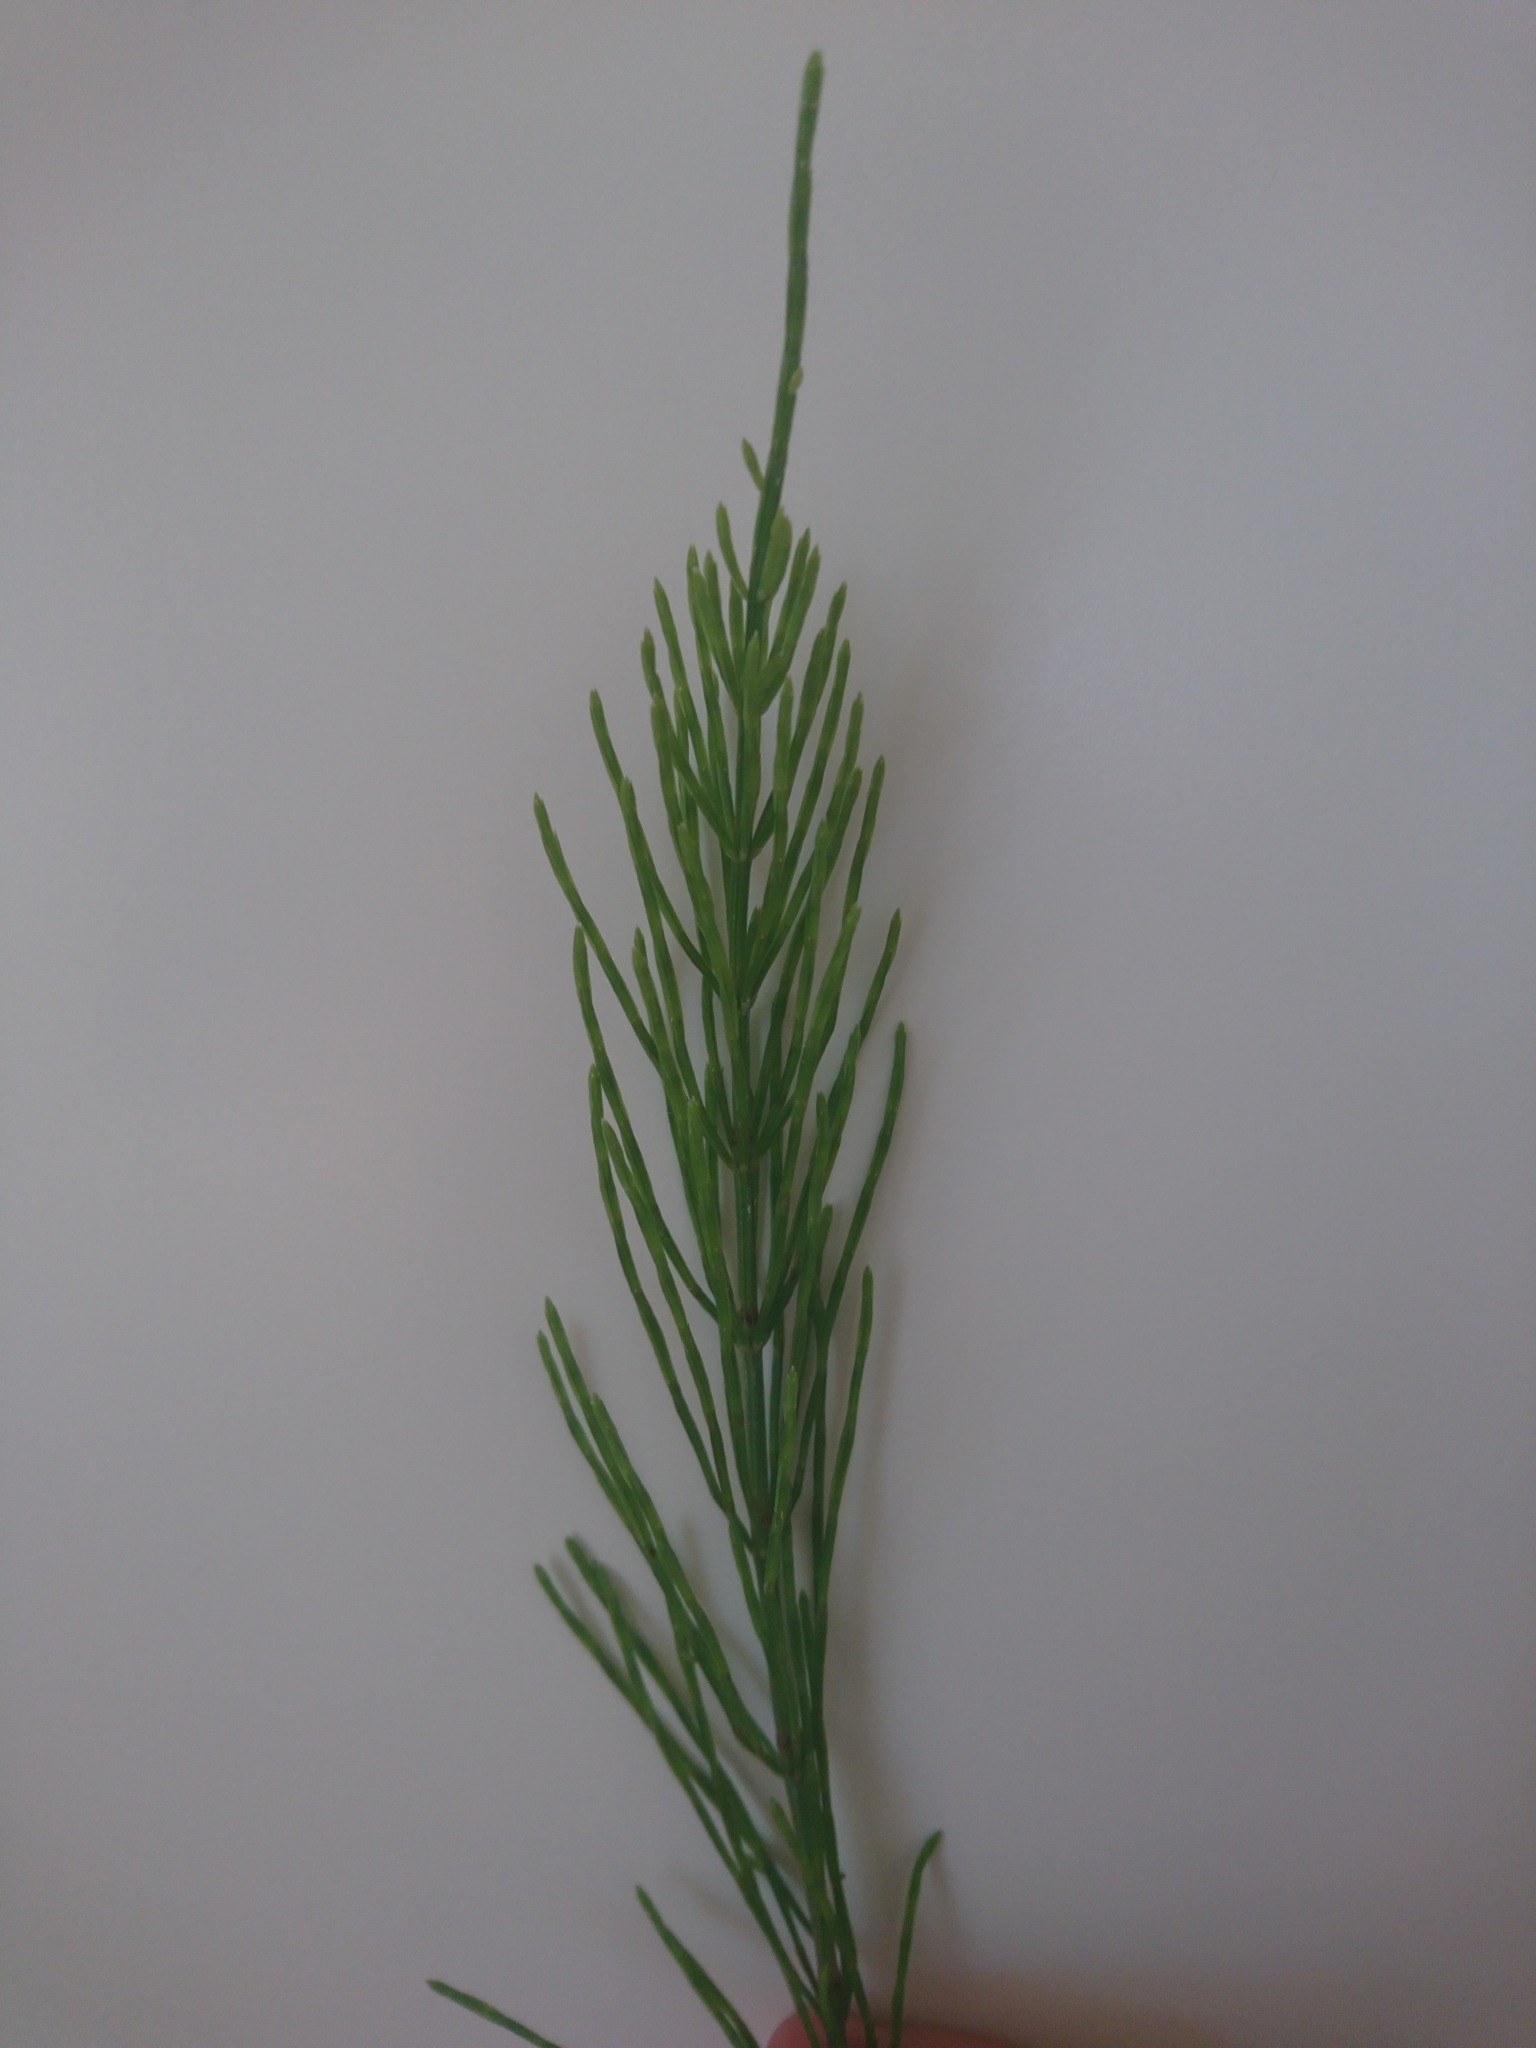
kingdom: Plantae
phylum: Tracheophyta
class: Polypodiopsida
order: Equisetales
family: Equisetaceae
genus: Equisetum
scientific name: Equisetum arvense
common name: Field horsetail
